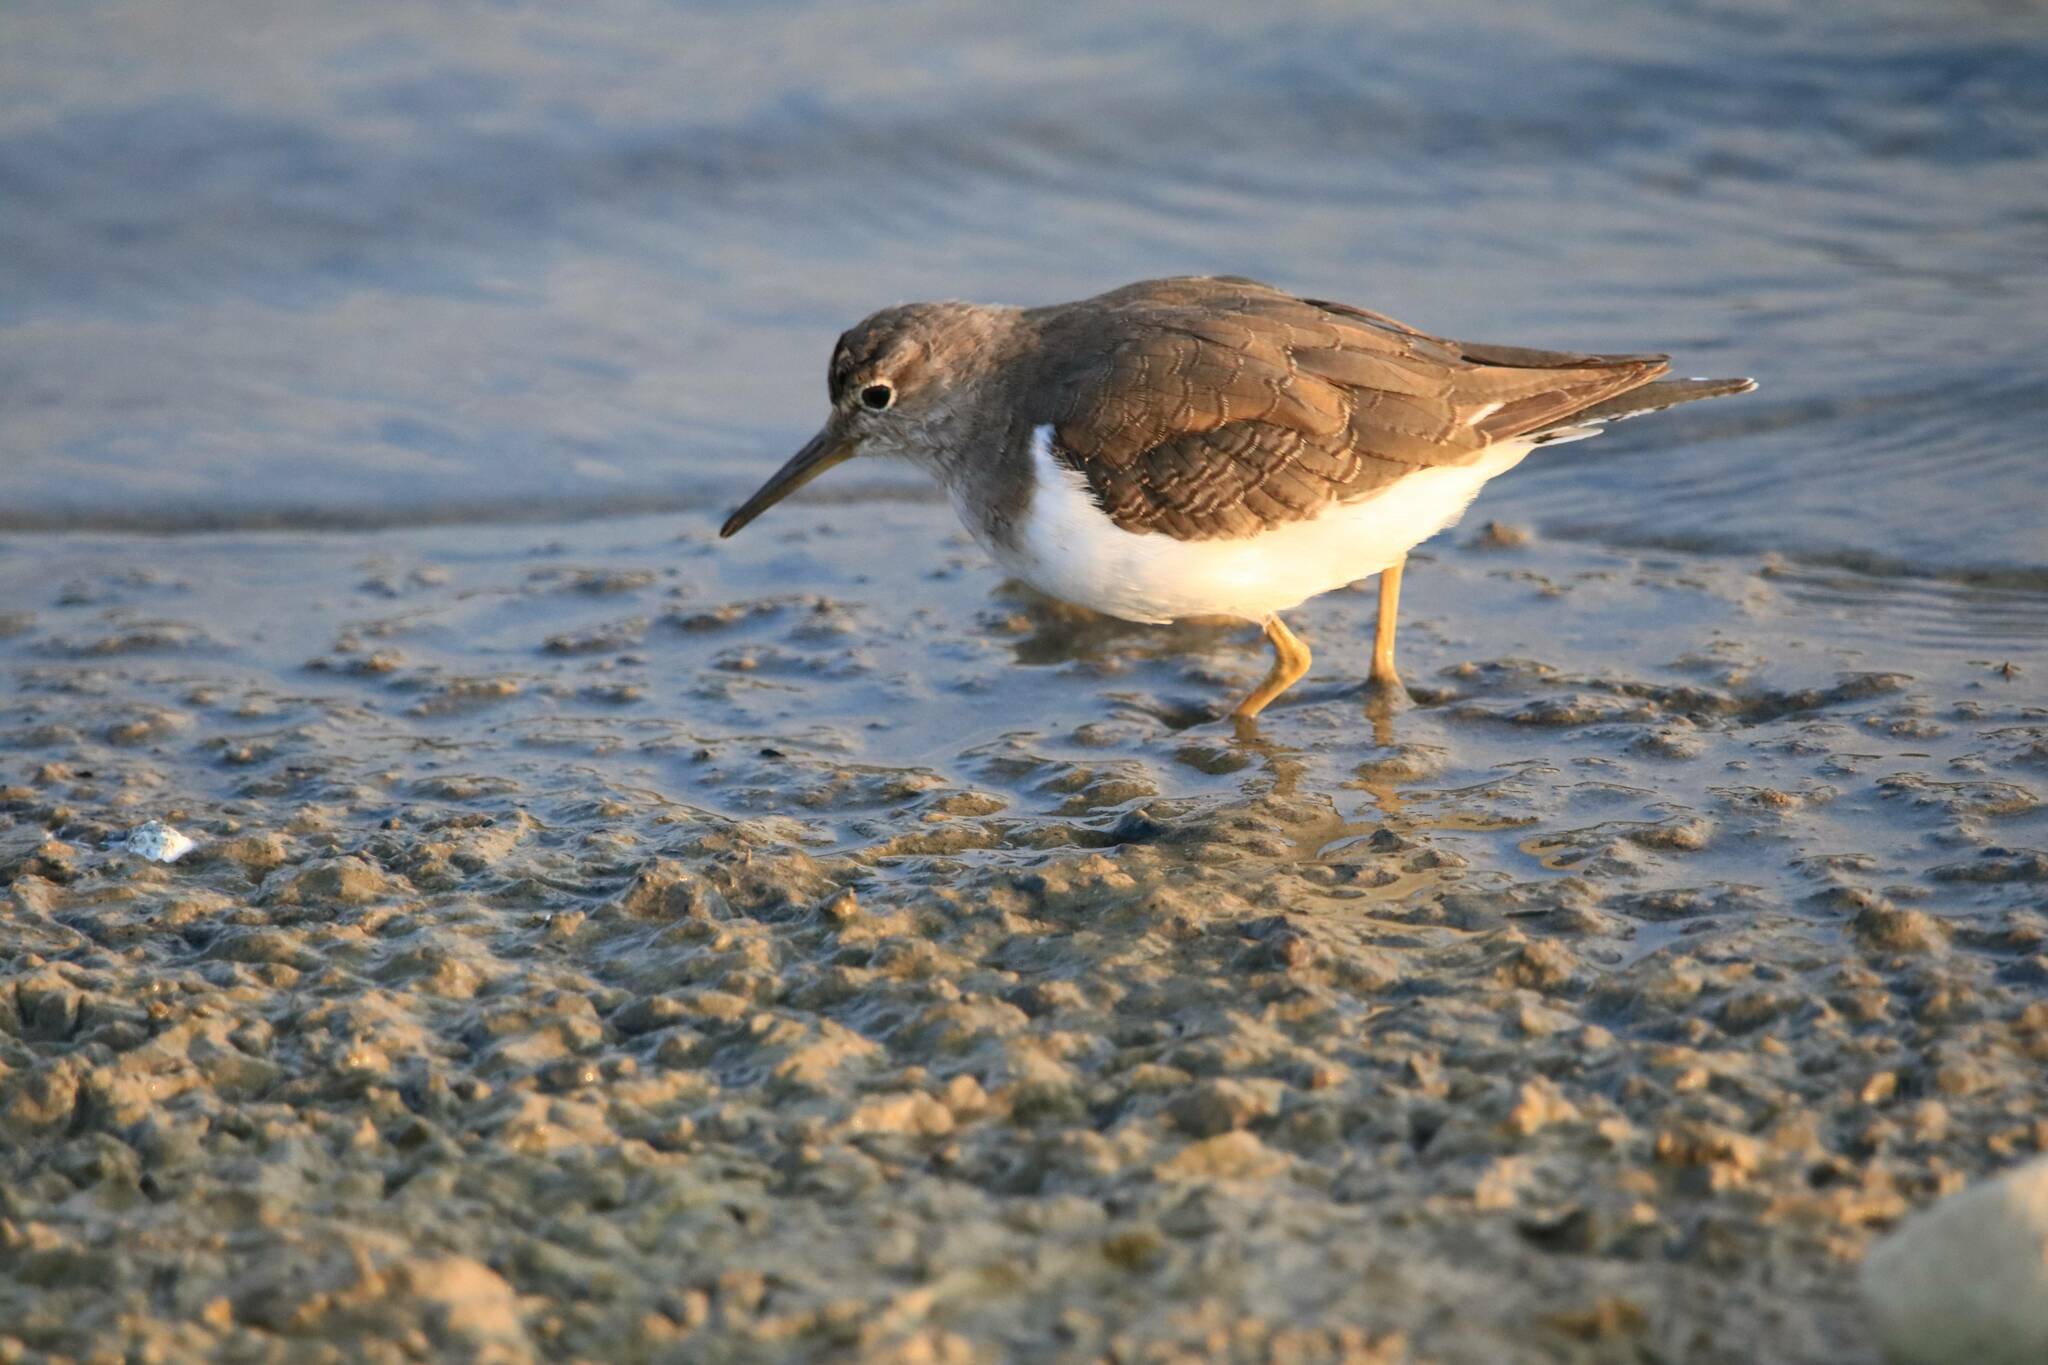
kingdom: Animalia
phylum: Chordata
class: Aves
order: Charadriiformes
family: Scolopacidae
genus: Actitis
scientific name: Actitis hypoleucos
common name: Common sandpiper
